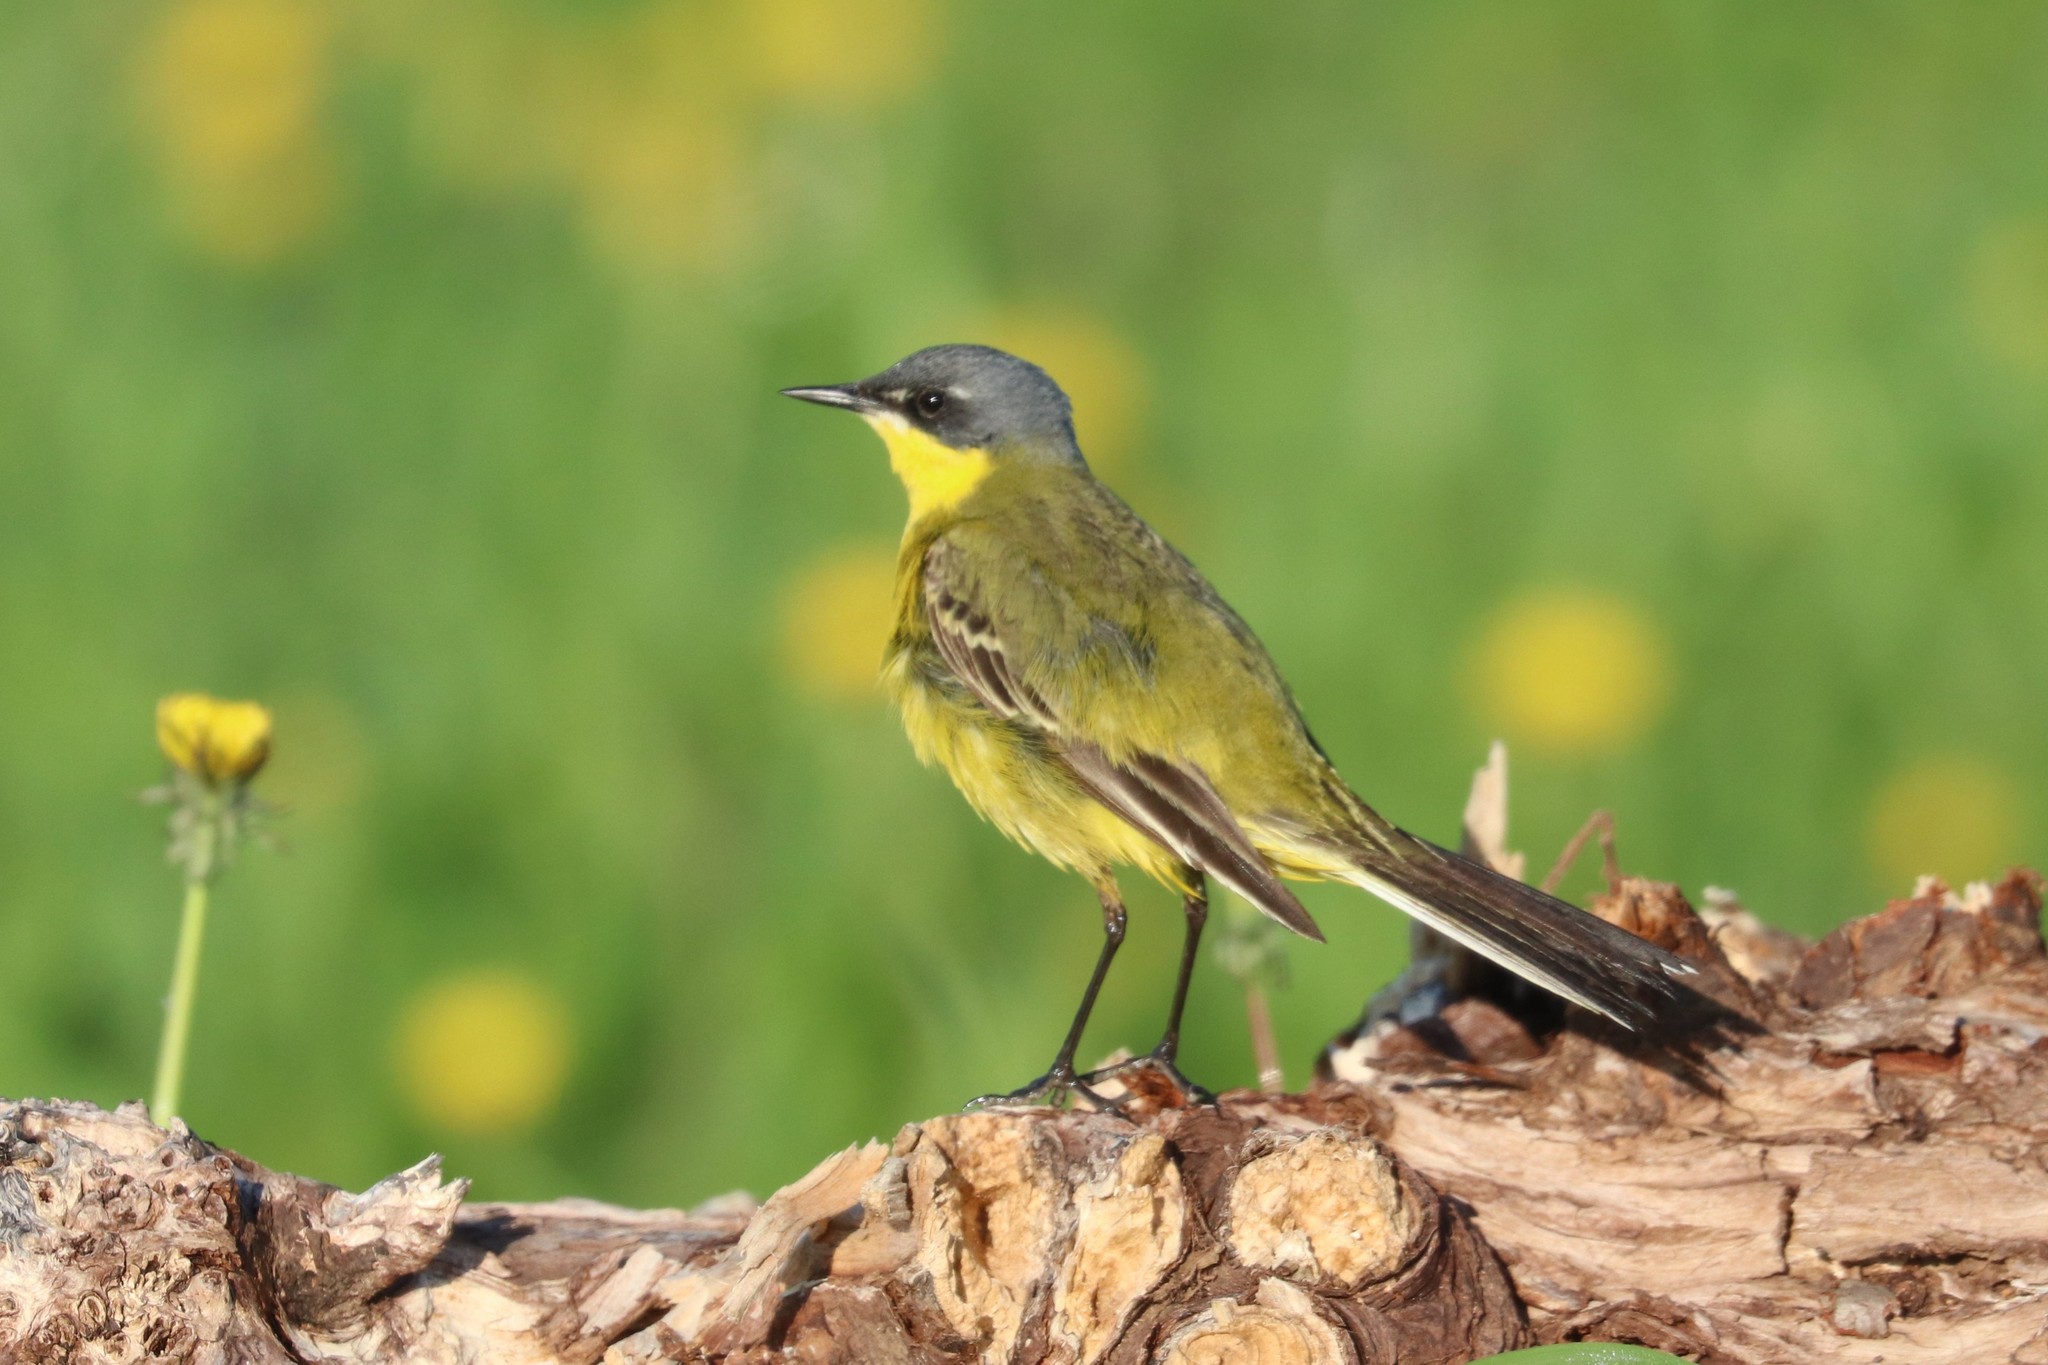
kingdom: Animalia
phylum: Chordata
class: Aves
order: Passeriformes
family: Motacillidae
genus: Motacilla
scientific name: Motacilla flava
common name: Western yellow wagtail
